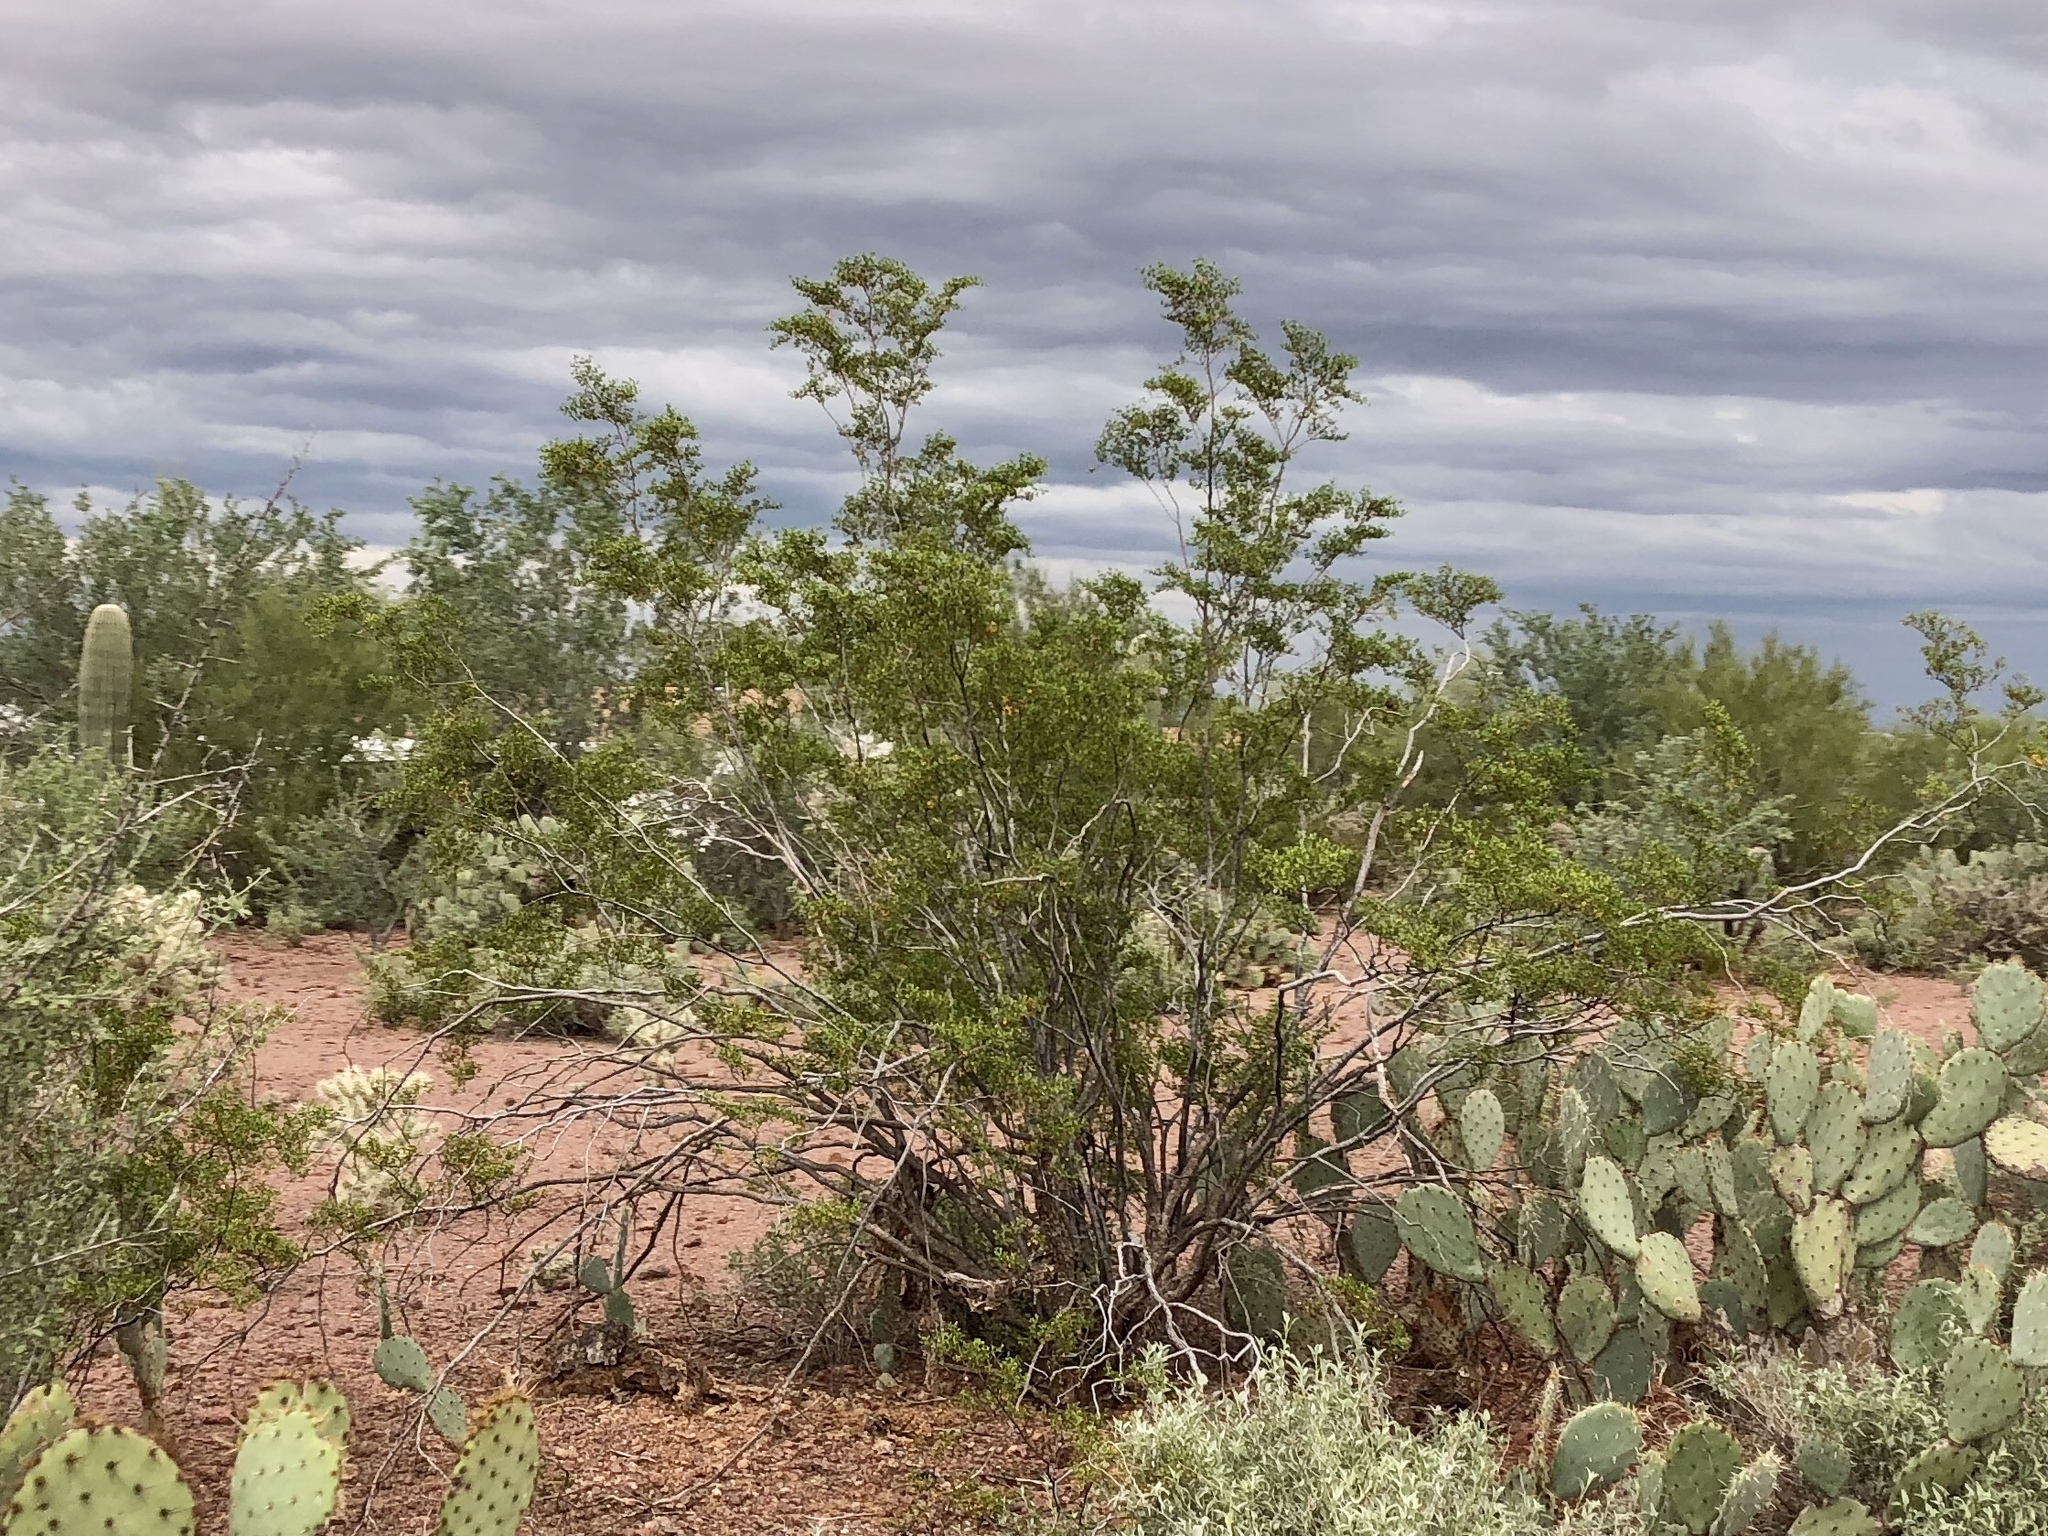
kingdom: Plantae
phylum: Tracheophyta
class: Magnoliopsida
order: Zygophyllales
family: Zygophyllaceae
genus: Larrea
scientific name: Larrea tridentata
